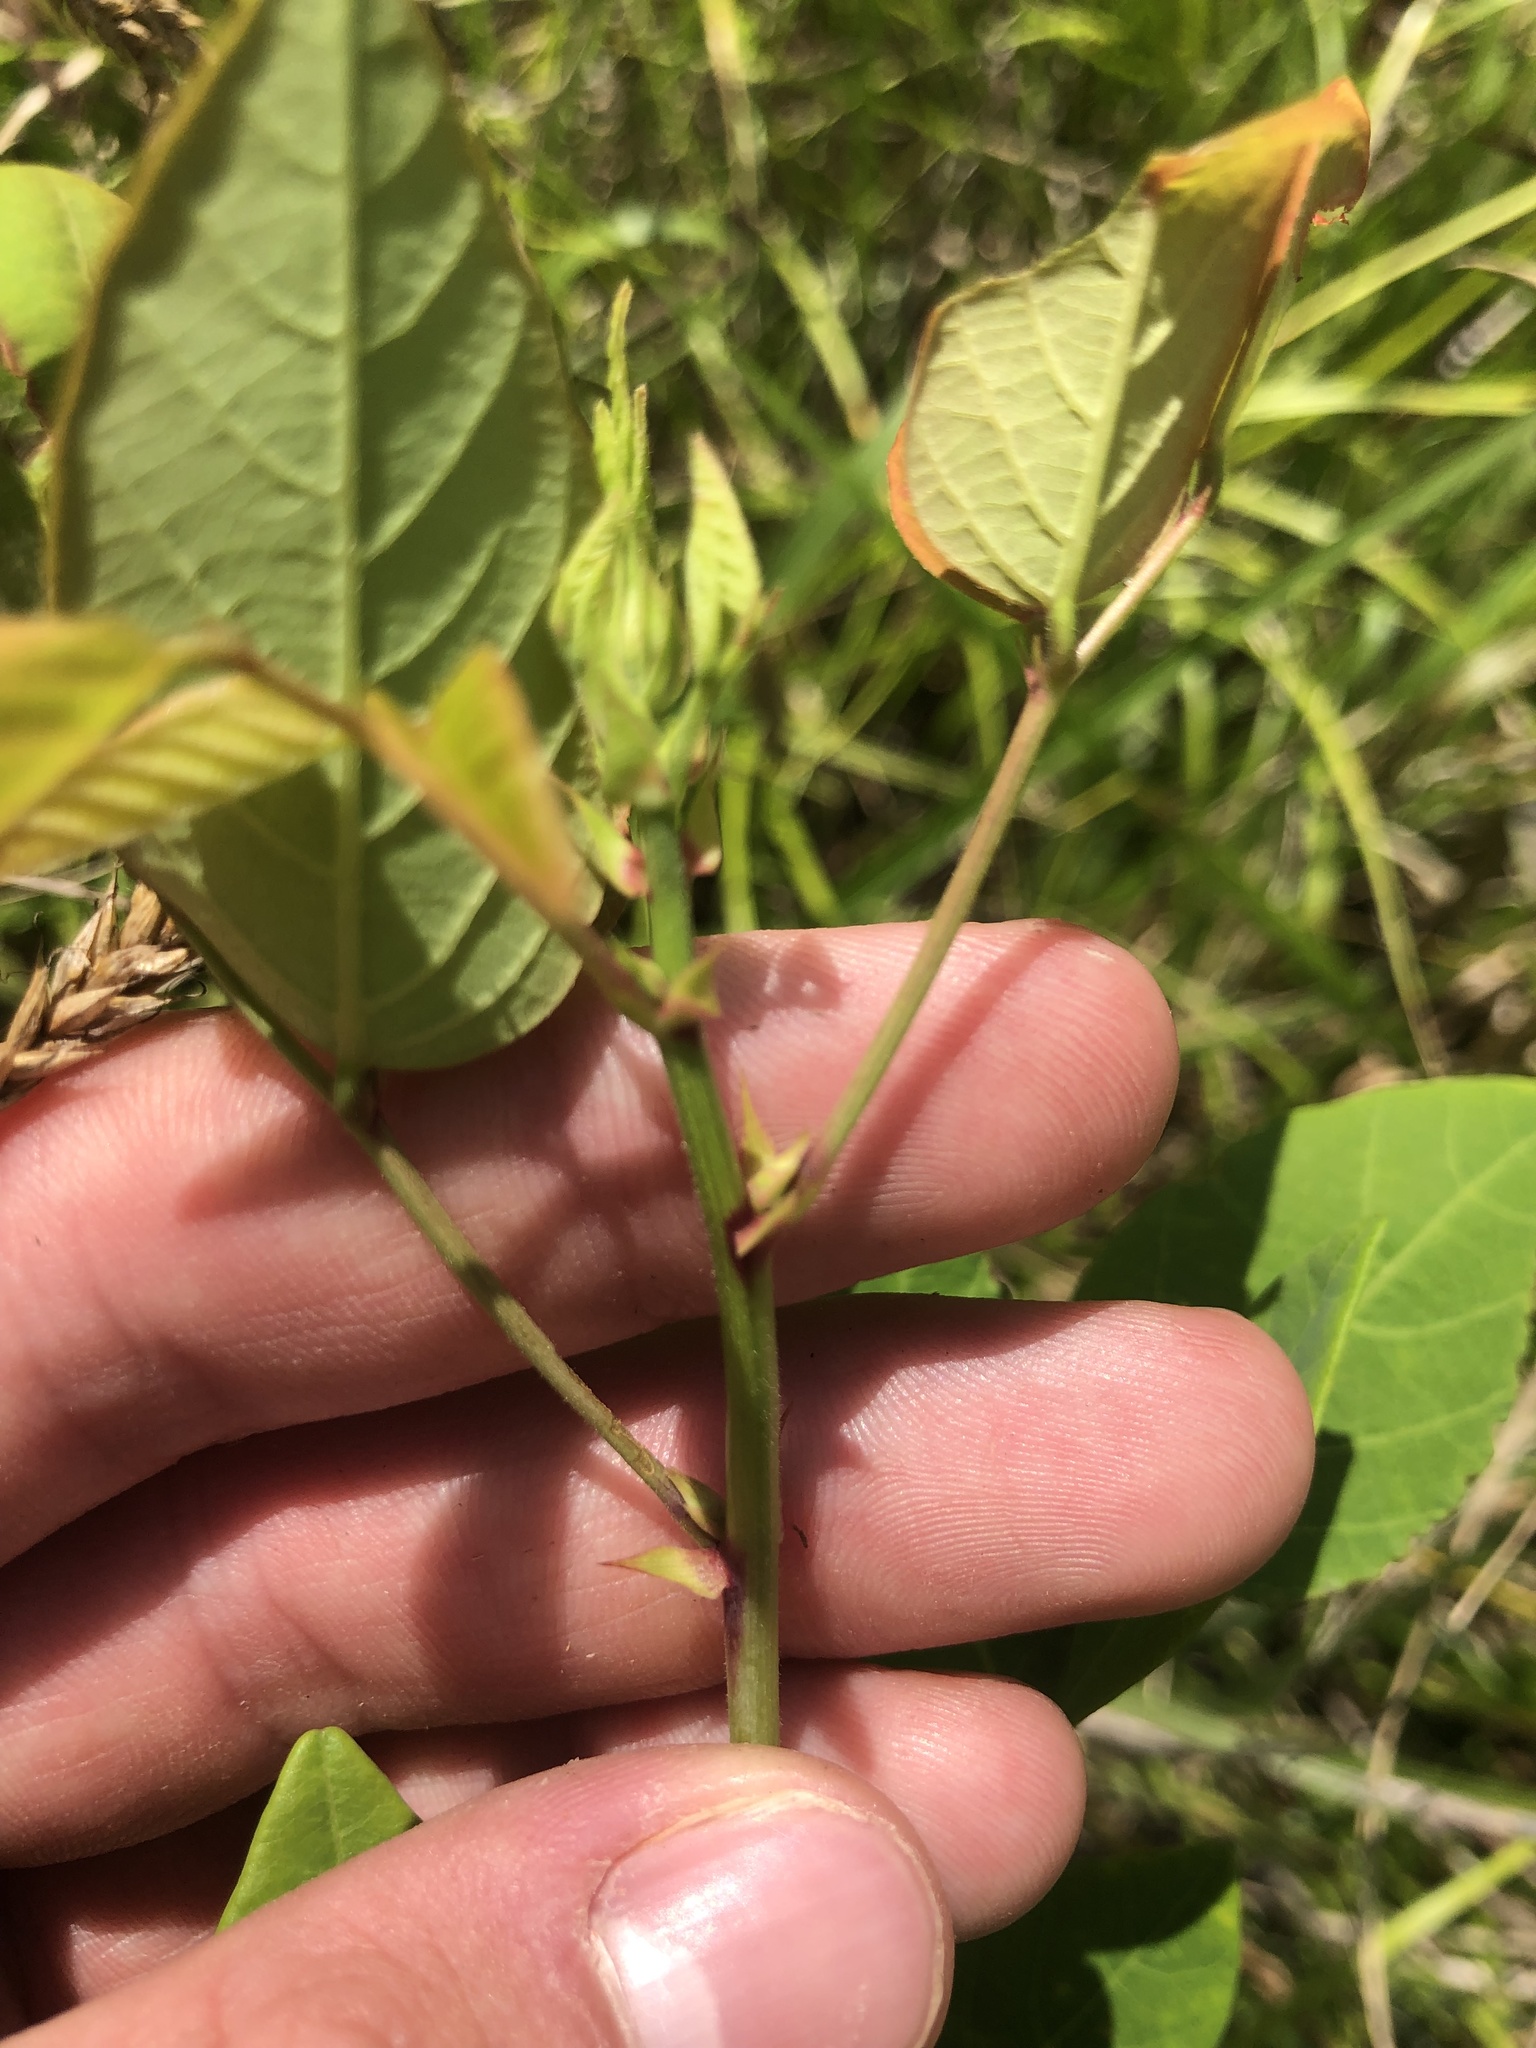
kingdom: Plantae
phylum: Tracheophyta
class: Magnoliopsida
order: Fabales
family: Fabaceae
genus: Desmodium
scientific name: Desmodium laevigatum
